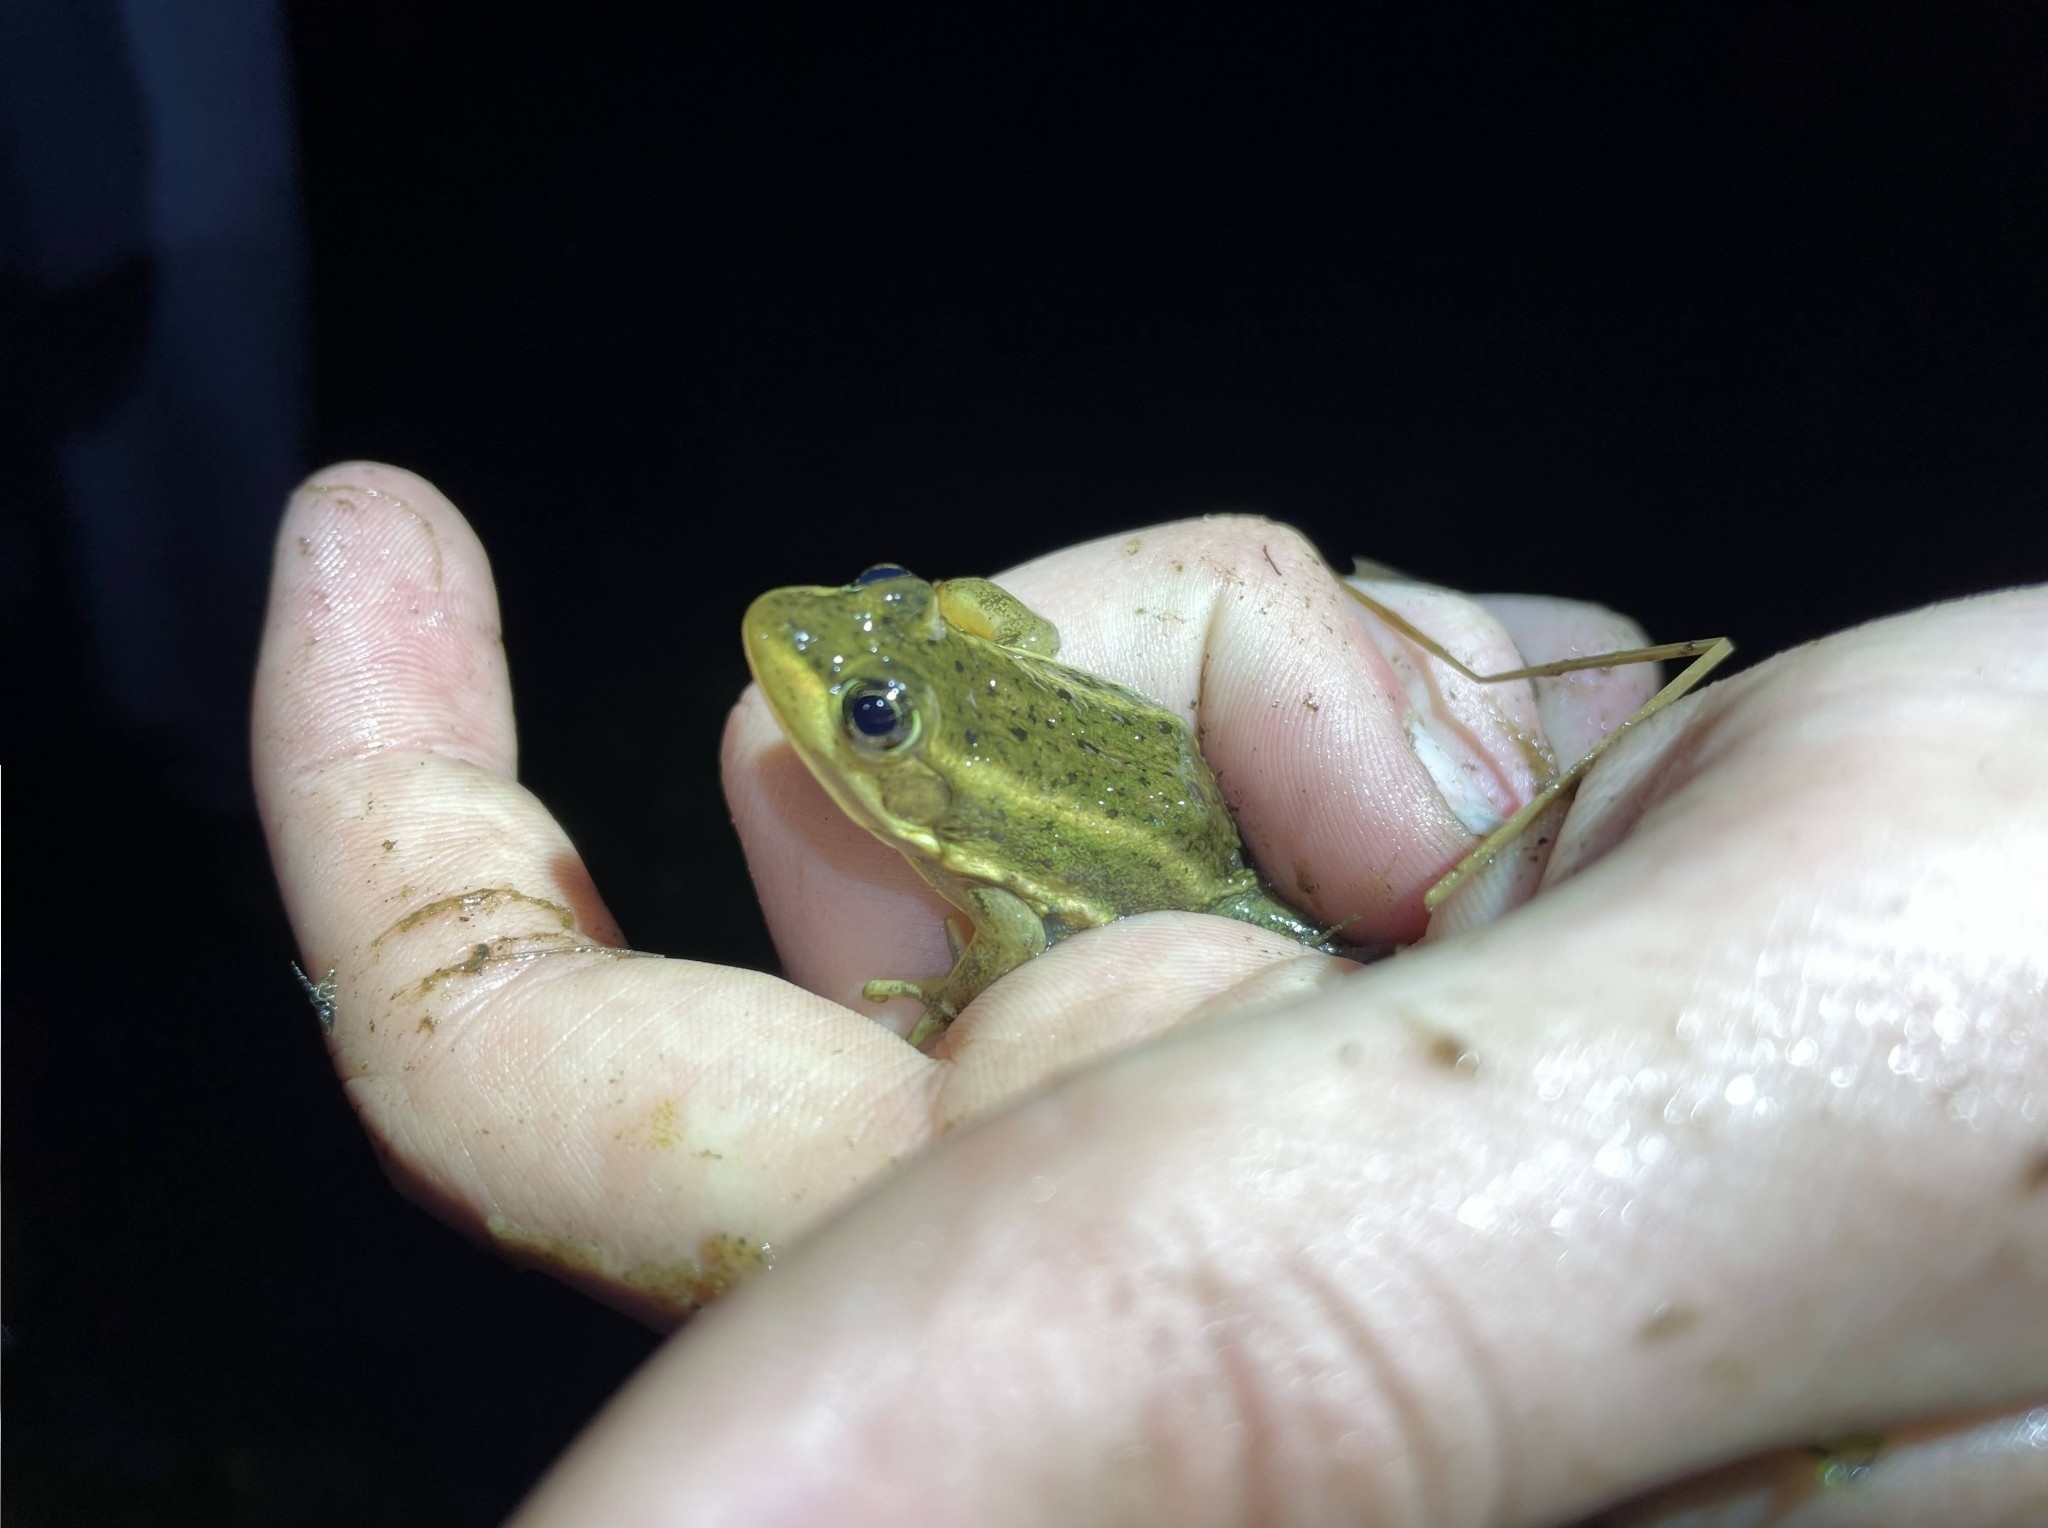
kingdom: Animalia
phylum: Chordata
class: Amphibia
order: Anura
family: Ranidae
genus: Lithobates
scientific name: Lithobates virgatipes
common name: Carpenter frog
